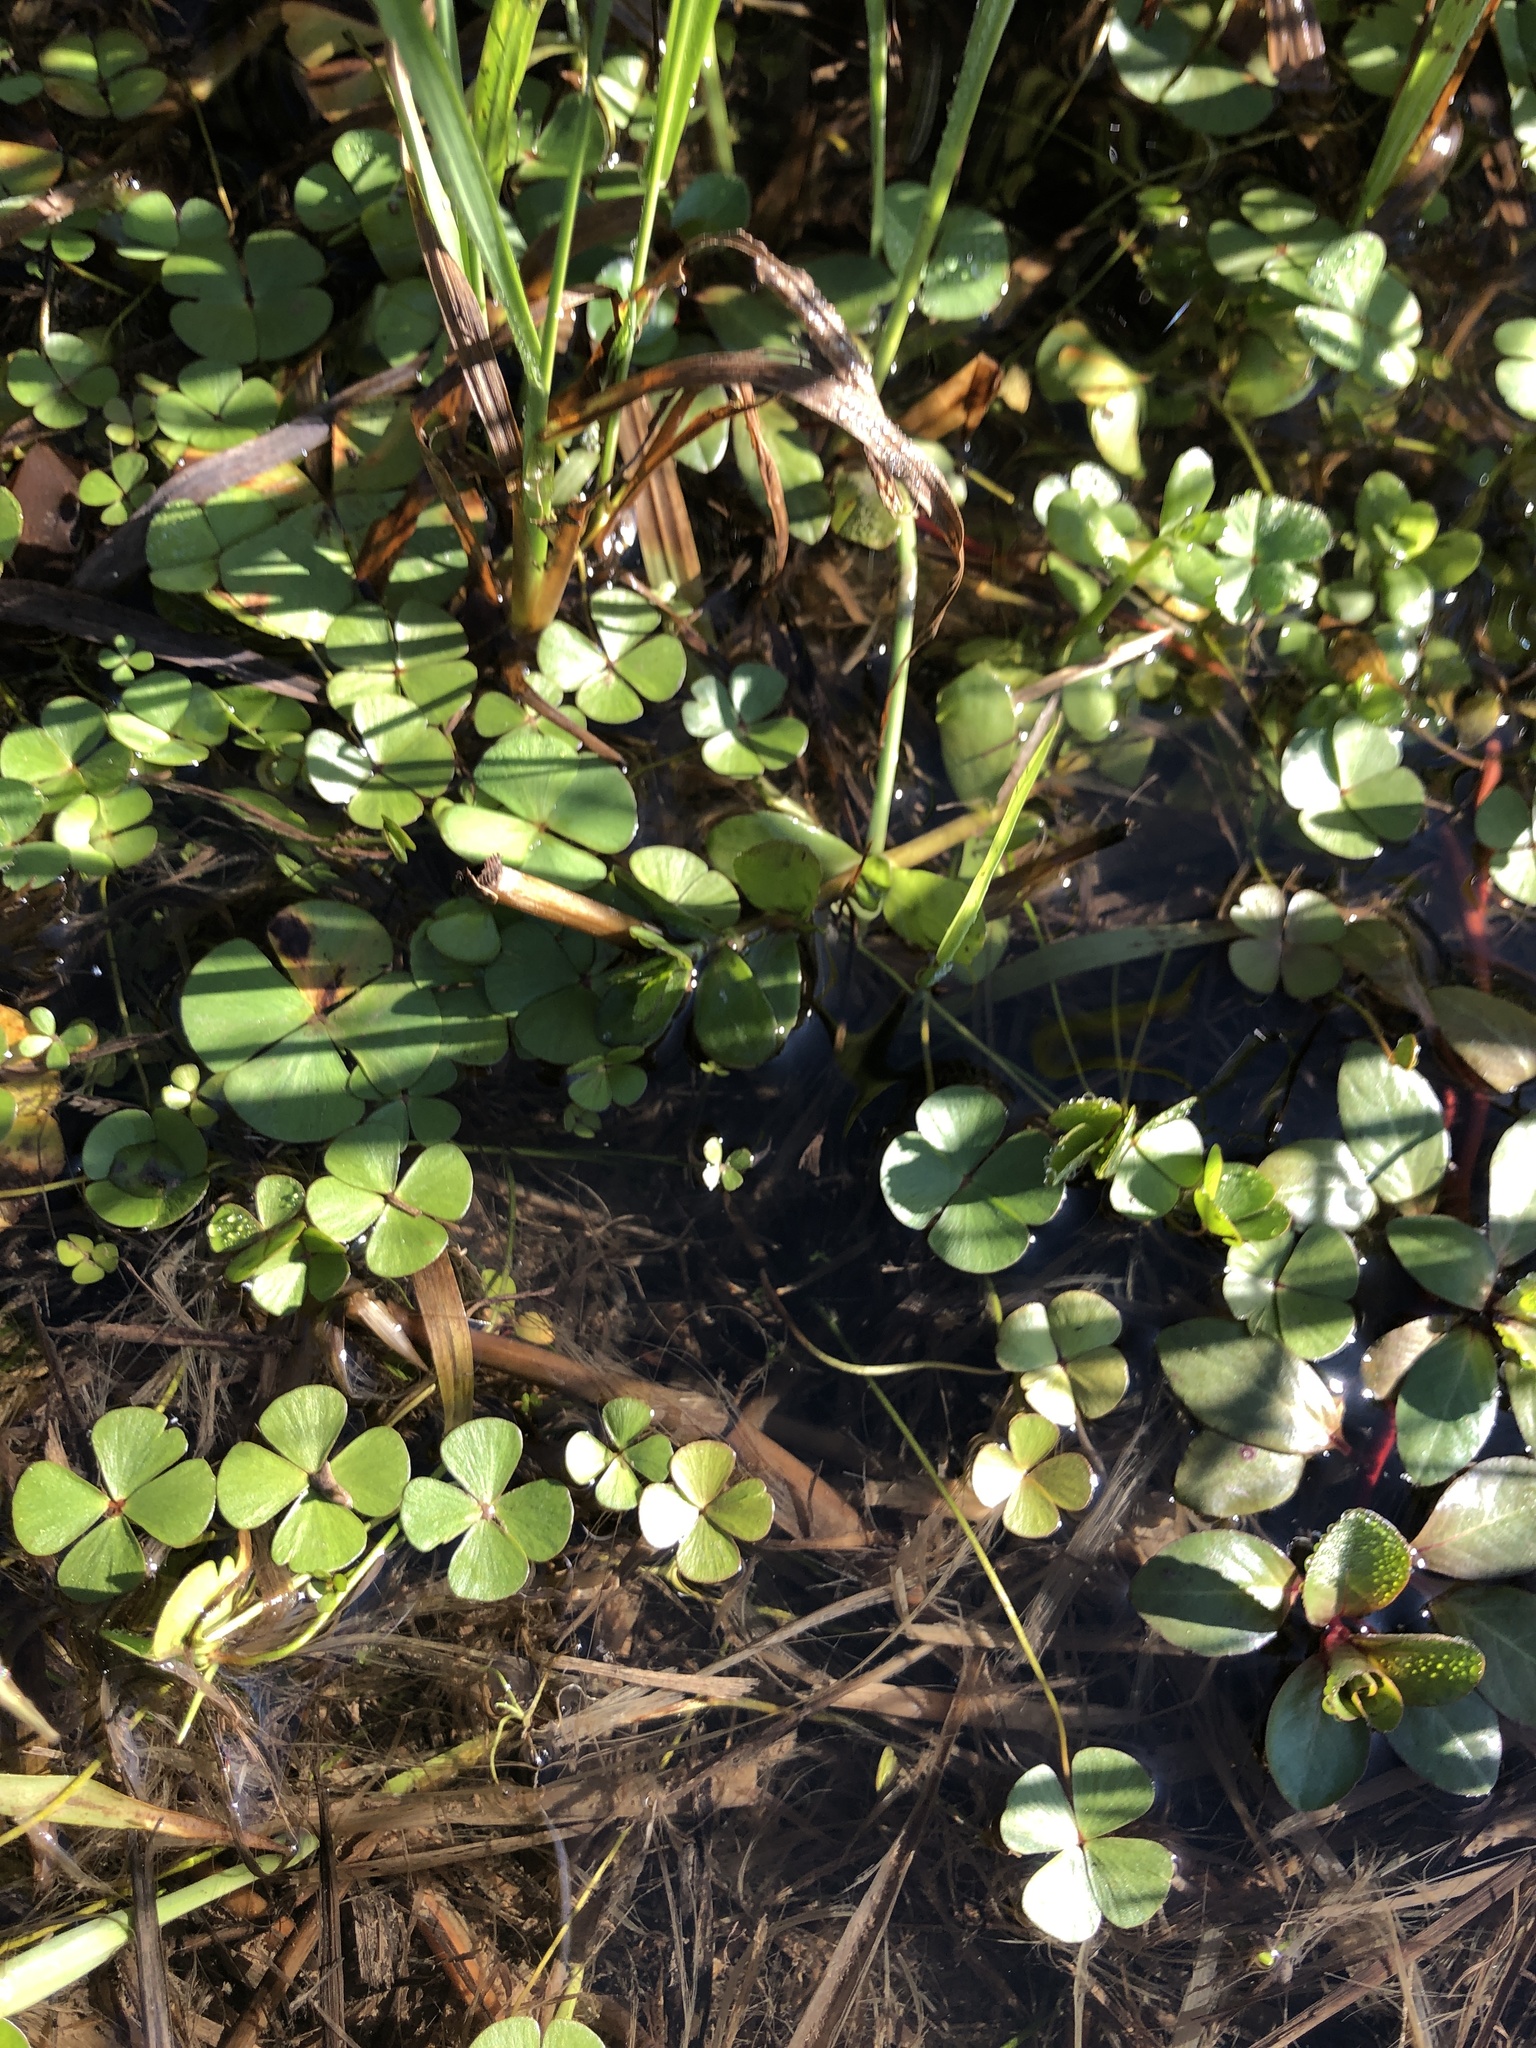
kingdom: Plantae
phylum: Tracheophyta
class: Polypodiopsida
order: Salviniales
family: Marsileaceae
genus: Marsilea
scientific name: Marsilea vestita
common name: Hooked-pepperwort
